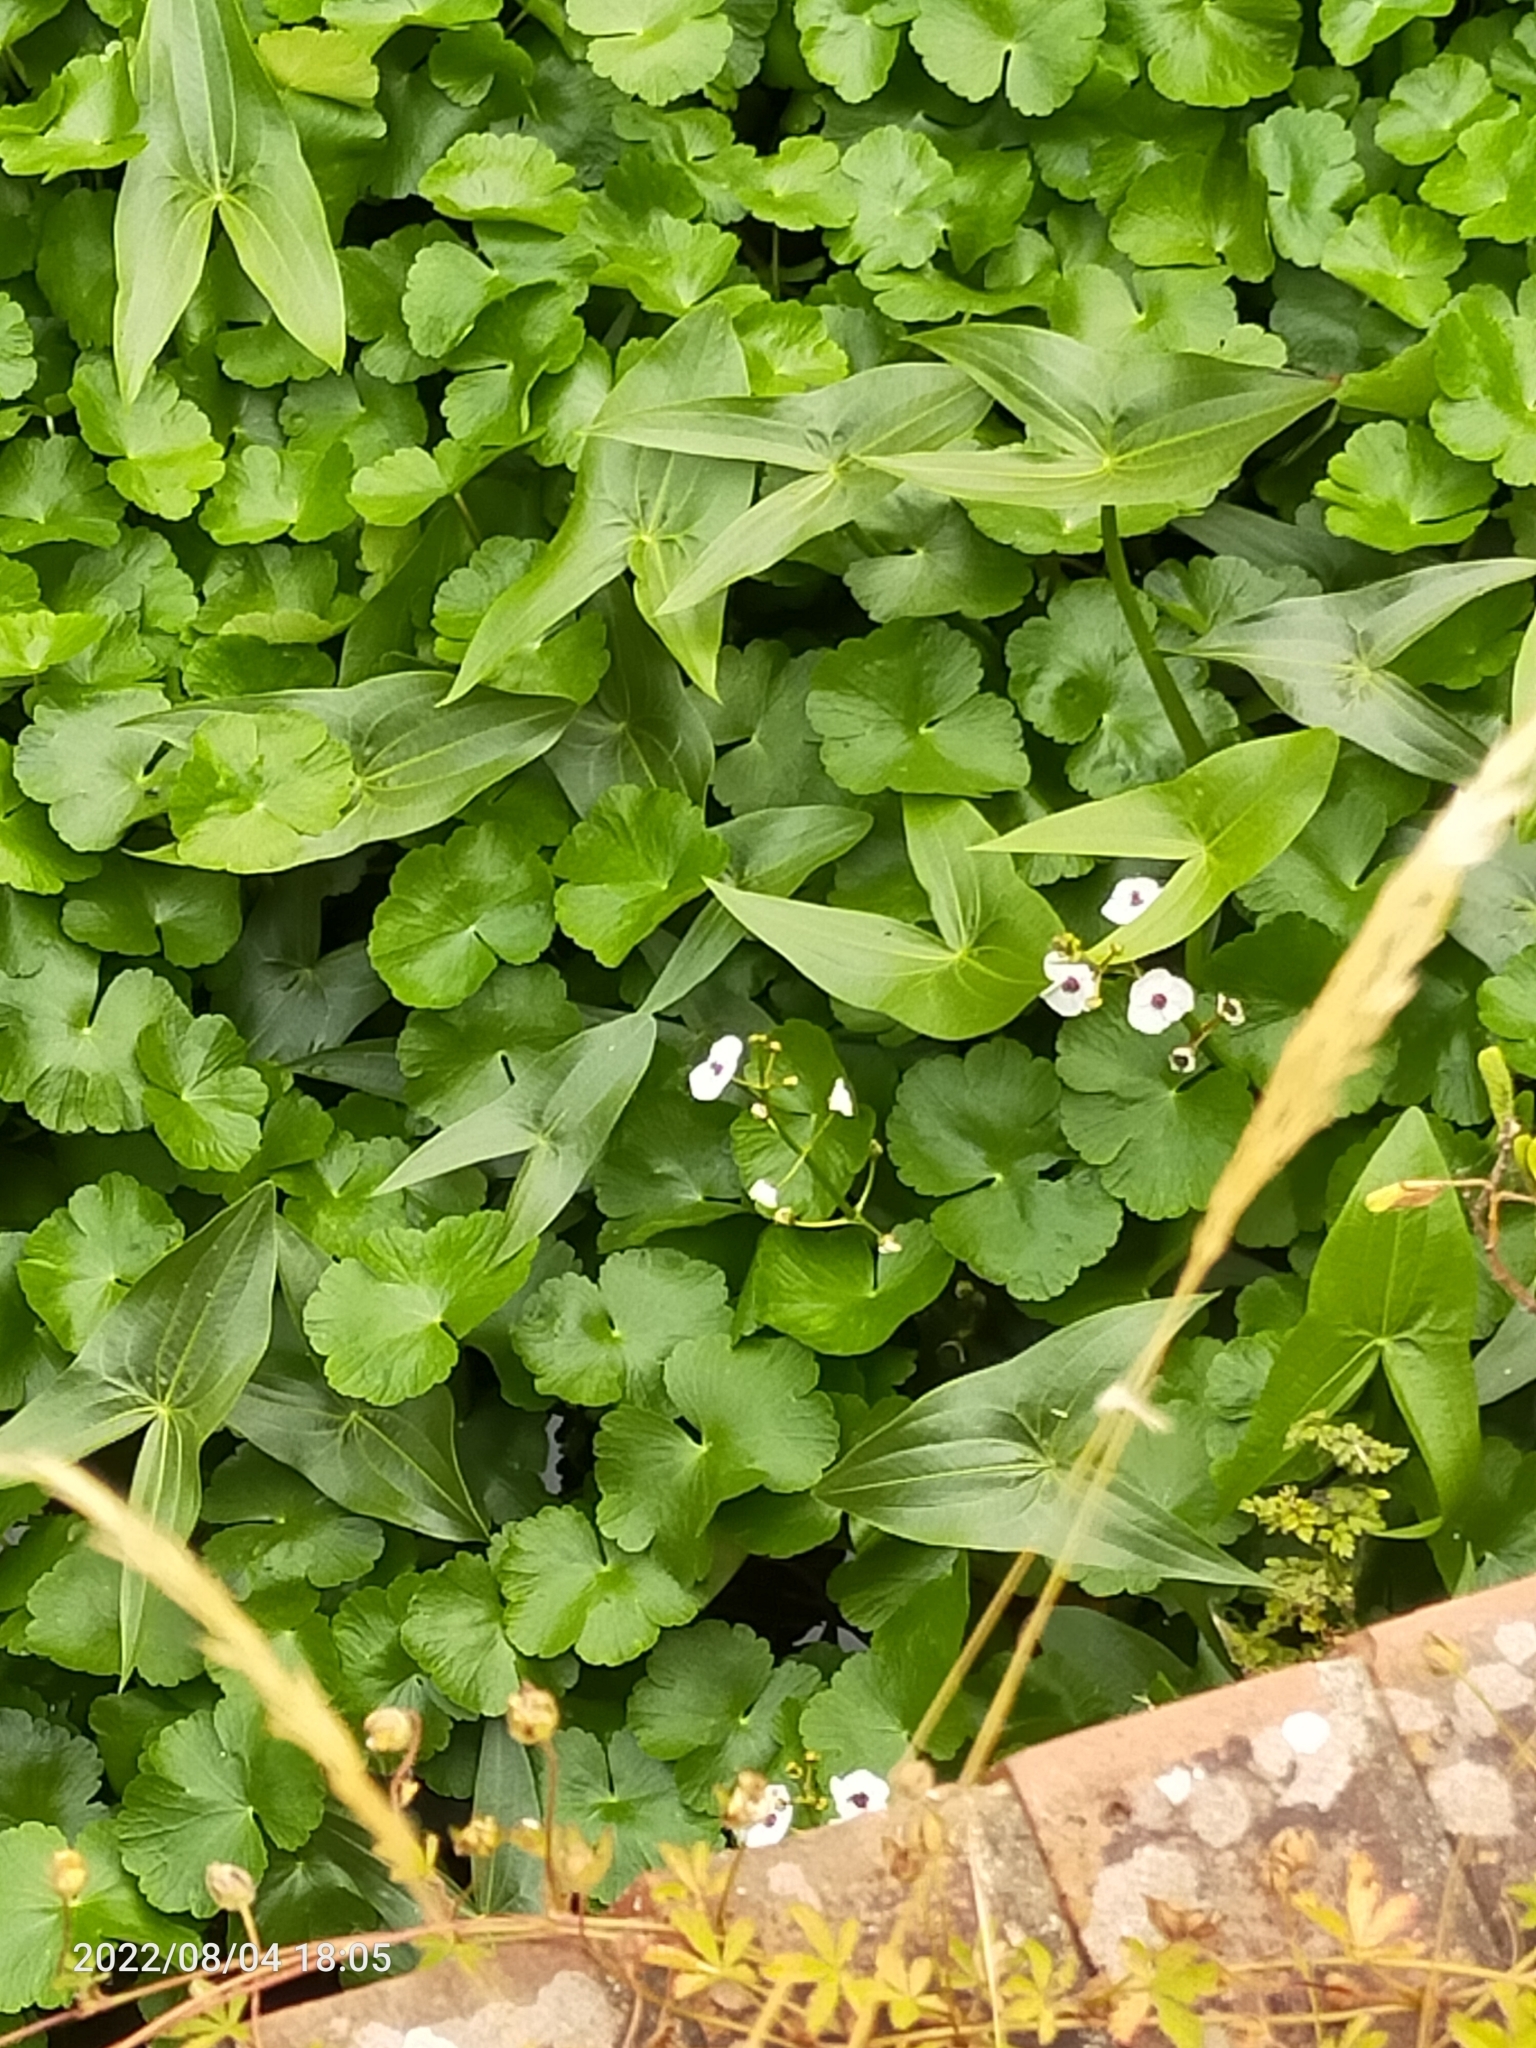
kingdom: Plantae
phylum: Tracheophyta
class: Liliopsida
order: Alismatales
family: Alismataceae
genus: Sagittaria
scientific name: Sagittaria sagittifolia
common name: Arrowhead
